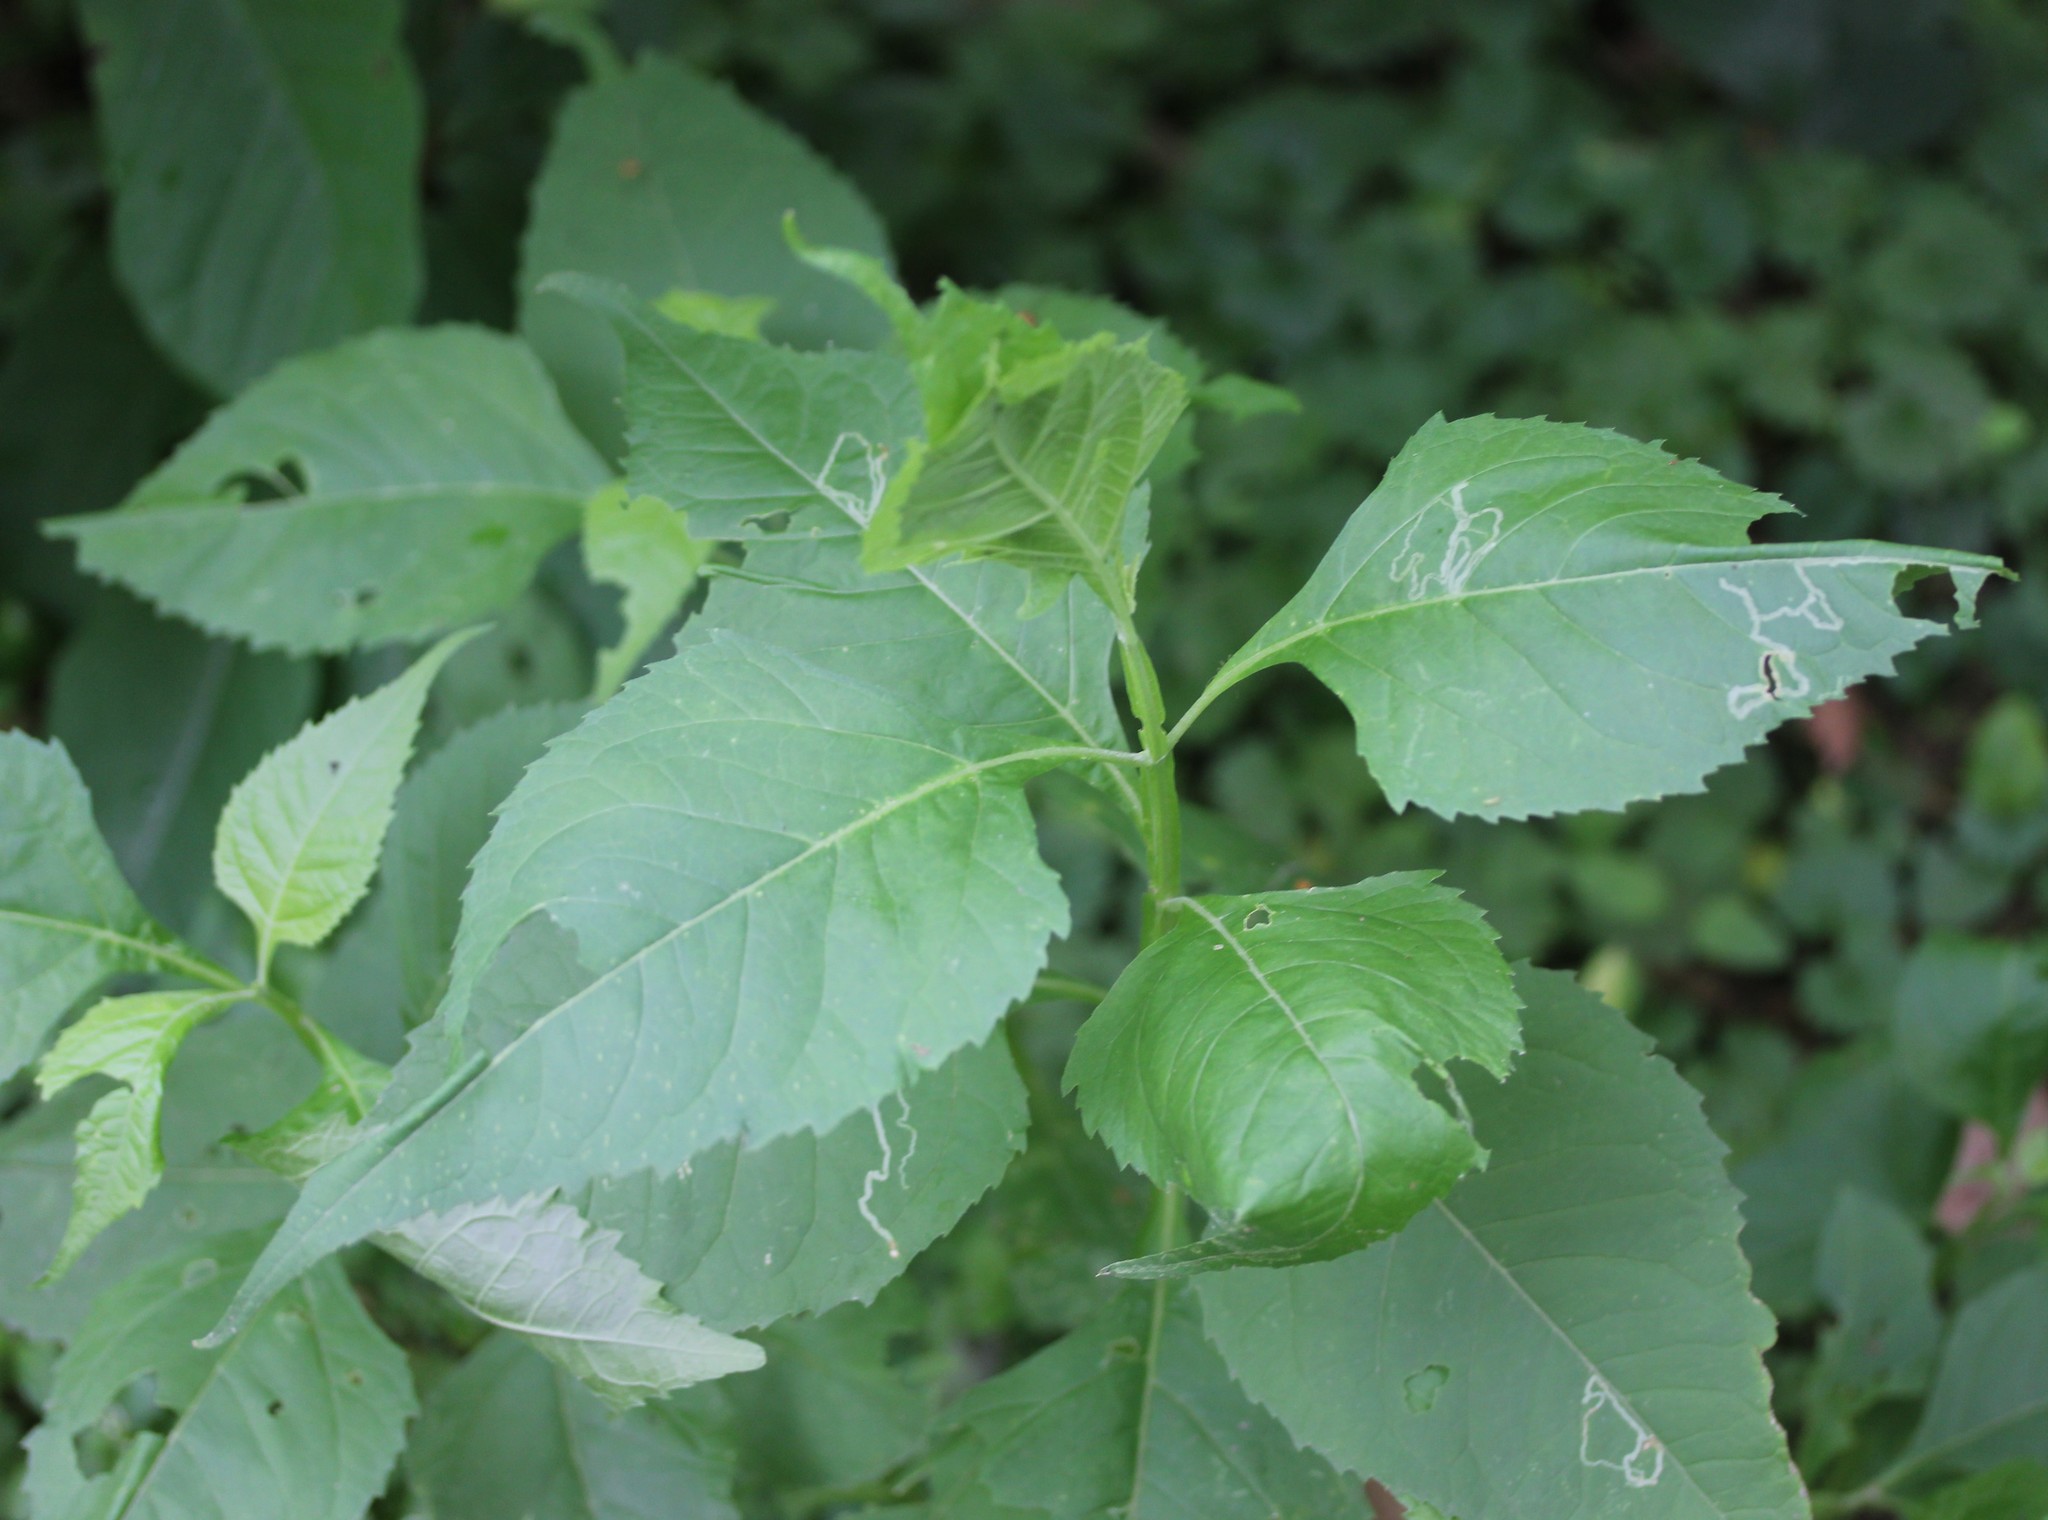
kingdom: Plantae
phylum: Tracheophyta
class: Magnoliopsida
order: Asterales
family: Asteraceae
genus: Verbesina
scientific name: Verbesina occidentalis
